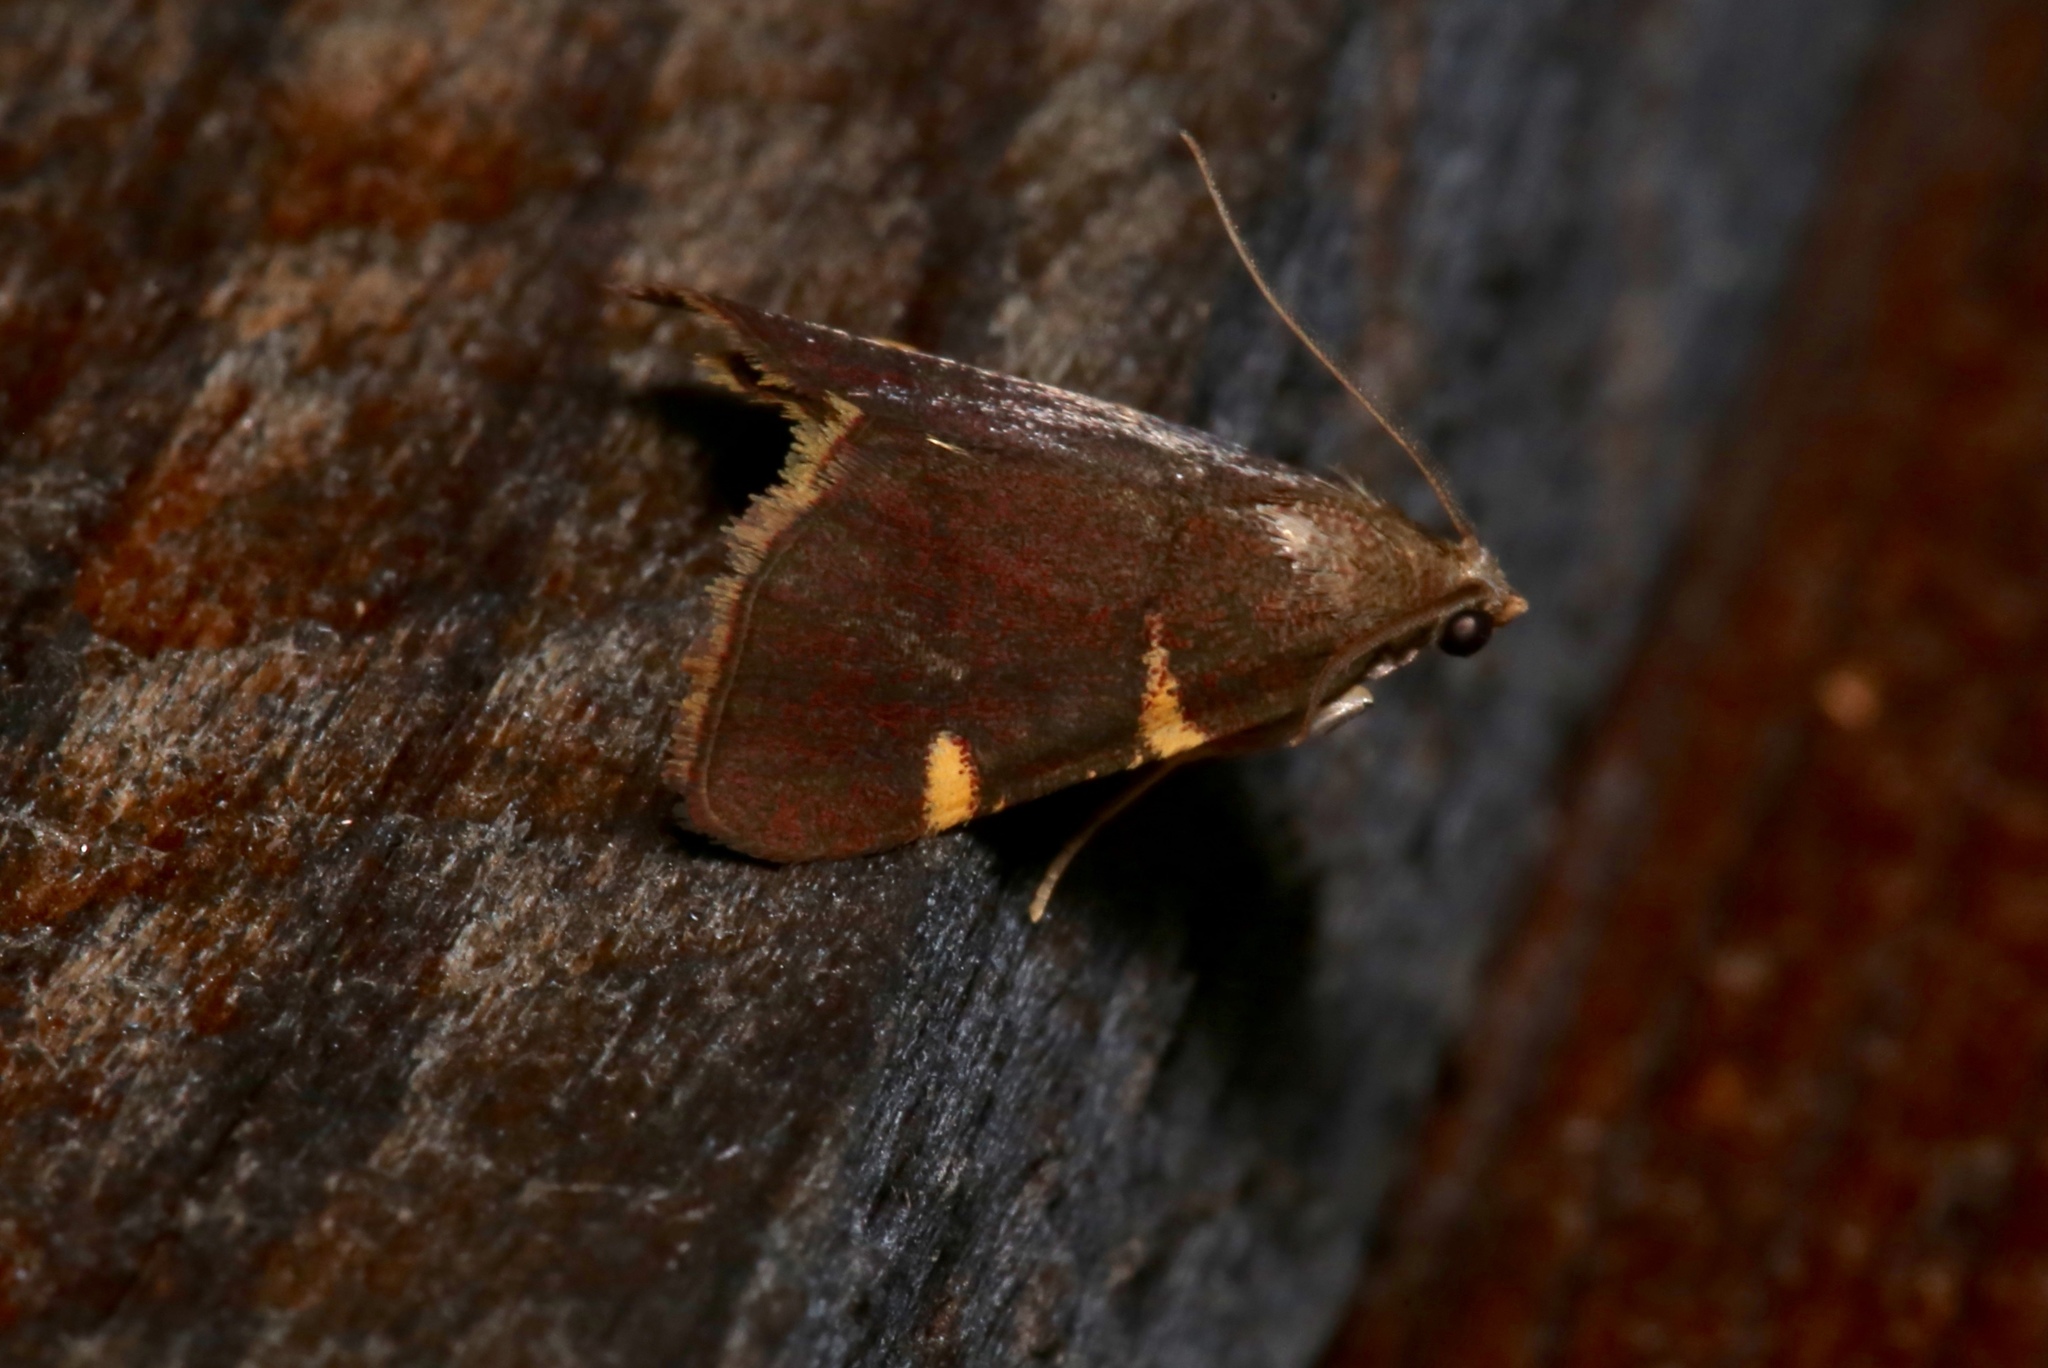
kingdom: Animalia
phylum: Arthropoda
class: Insecta
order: Lepidoptera
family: Pyralidae
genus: Hypsopygia
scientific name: Hypsopygia olinalis
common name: Yellow-fringed dolichomia moth
